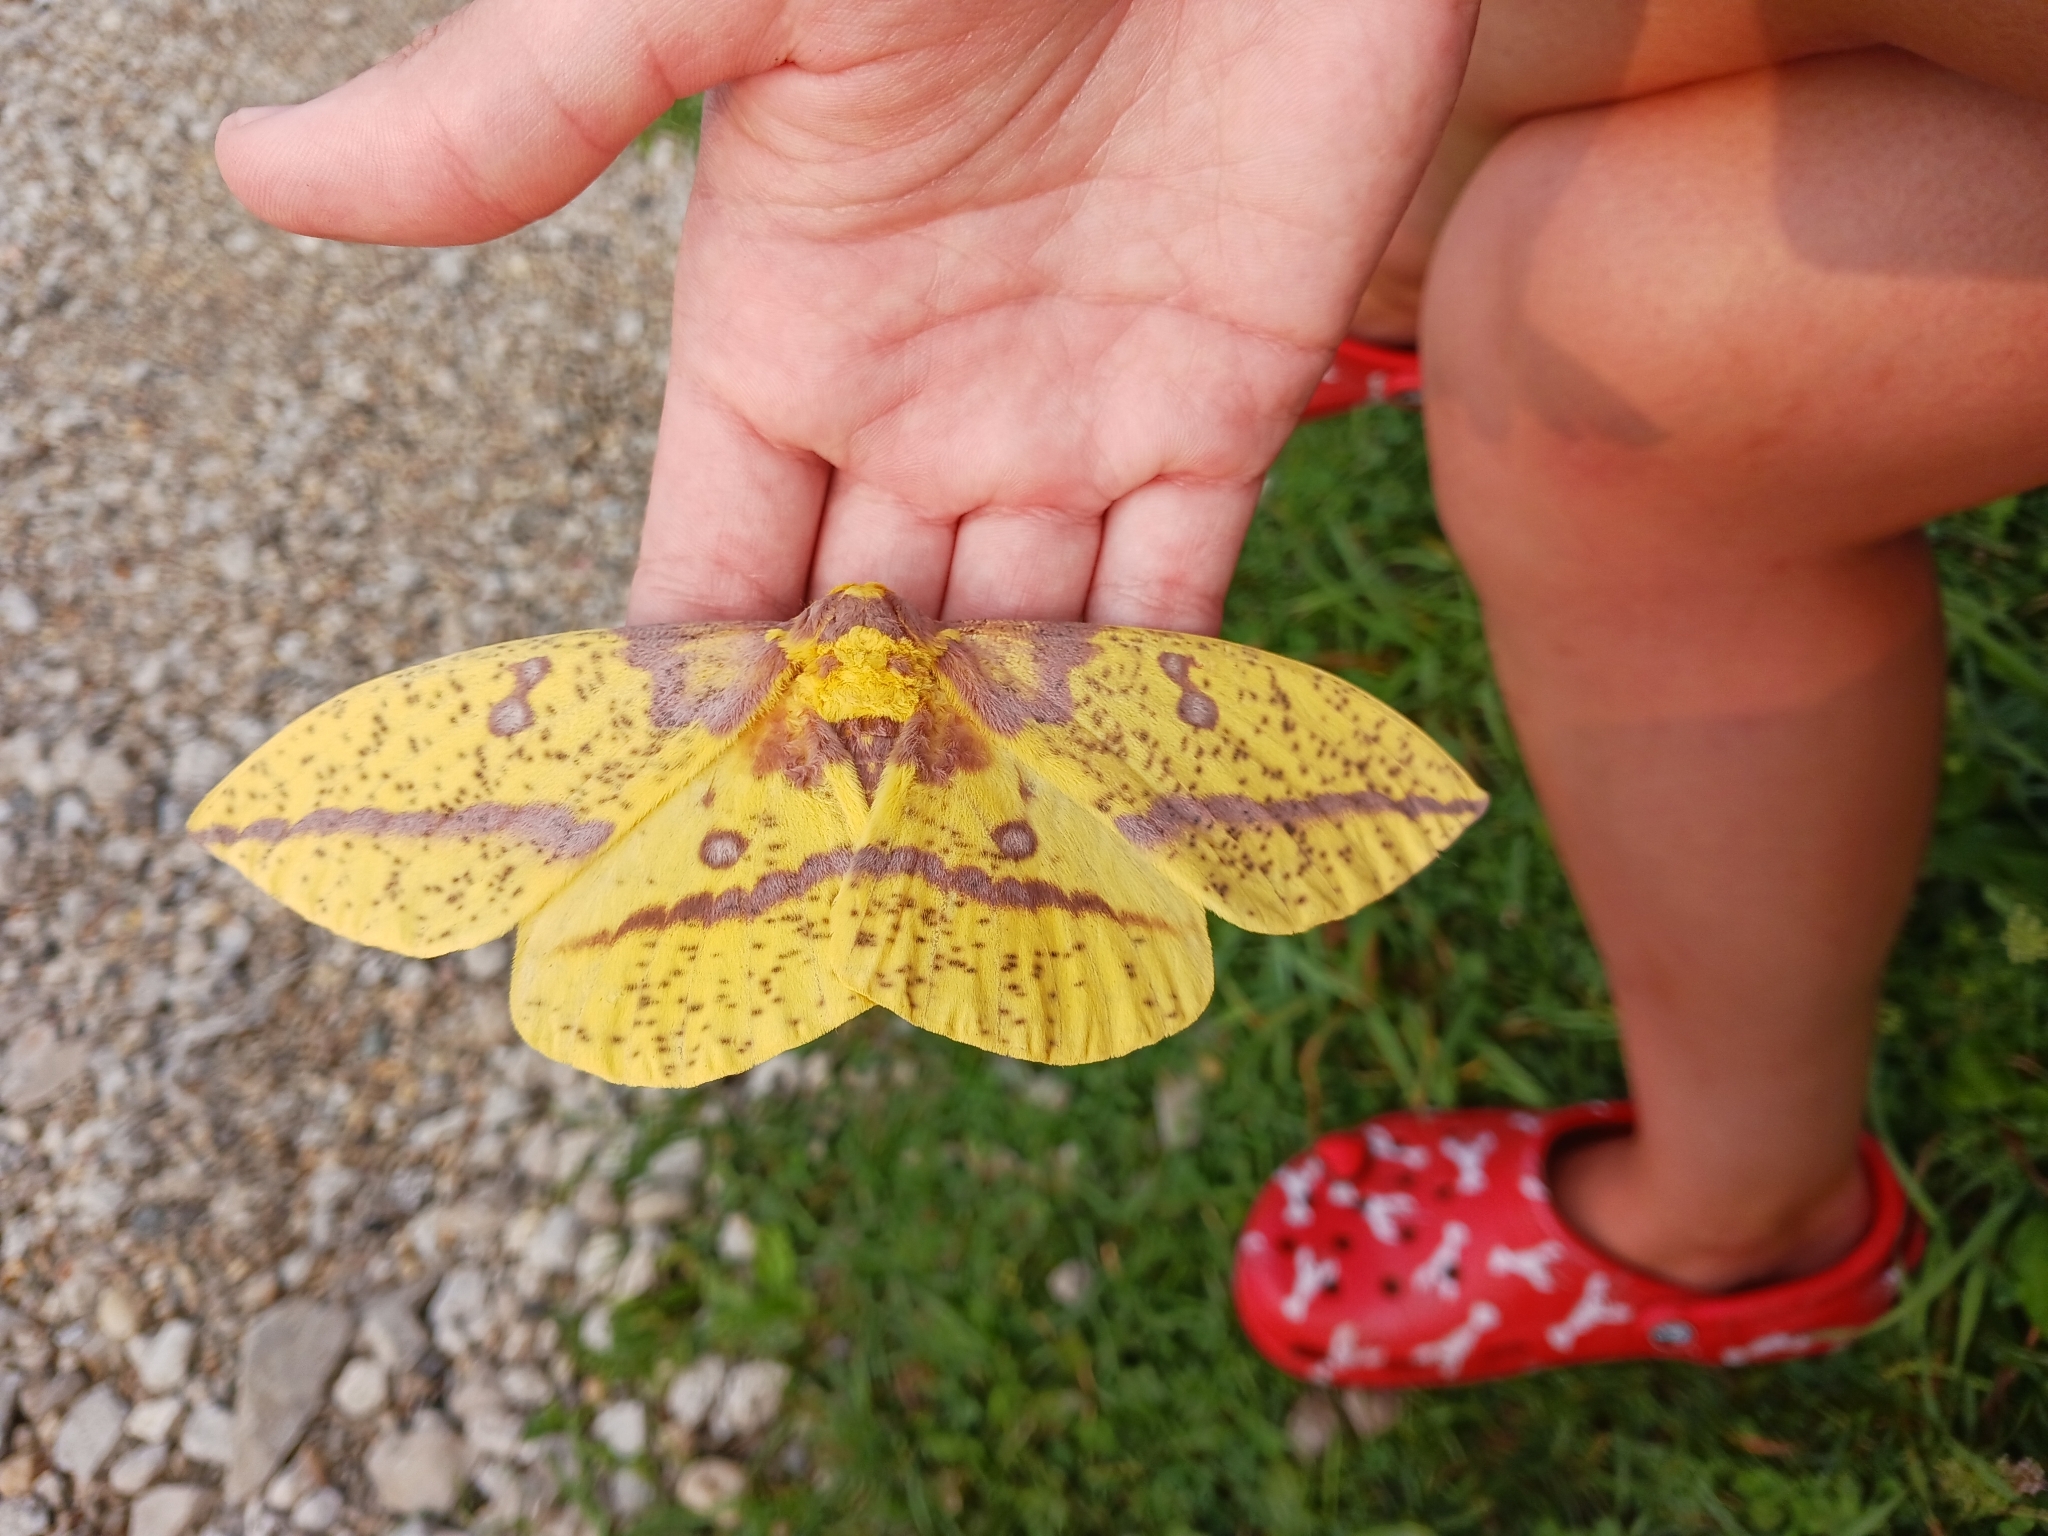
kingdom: Animalia
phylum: Arthropoda
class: Insecta
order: Lepidoptera
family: Saturniidae
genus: Eacles
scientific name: Eacles imperialis
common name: Imperial moth
